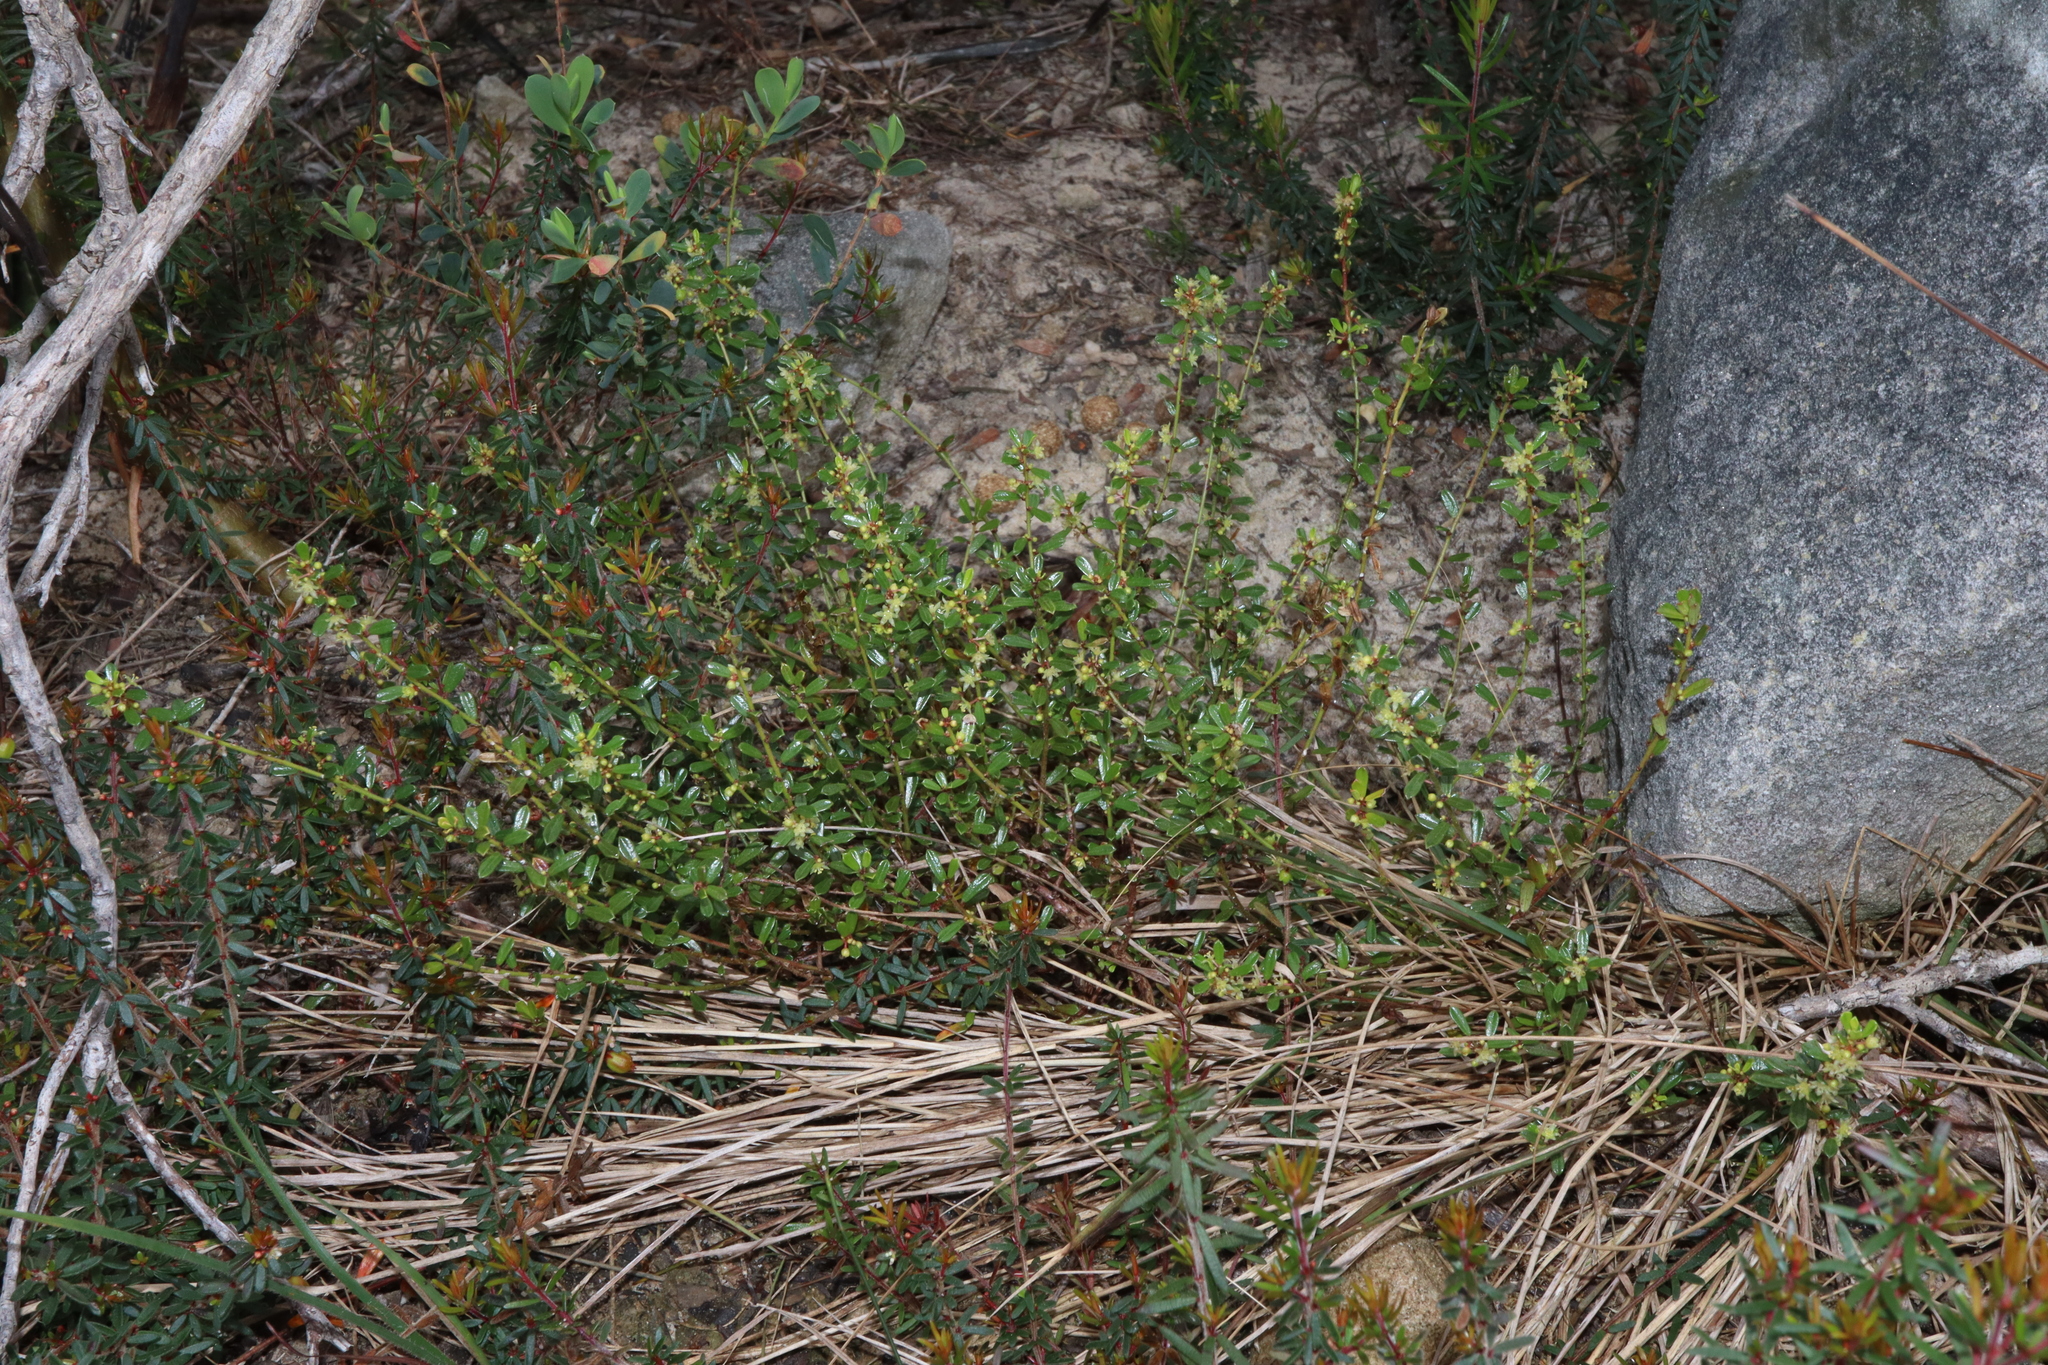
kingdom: Plantae
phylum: Tracheophyta
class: Magnoliopsida
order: Malpighiales
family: Phyllanthaceae
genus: Phyllanthus
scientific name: Phyllanthus hirtellus
